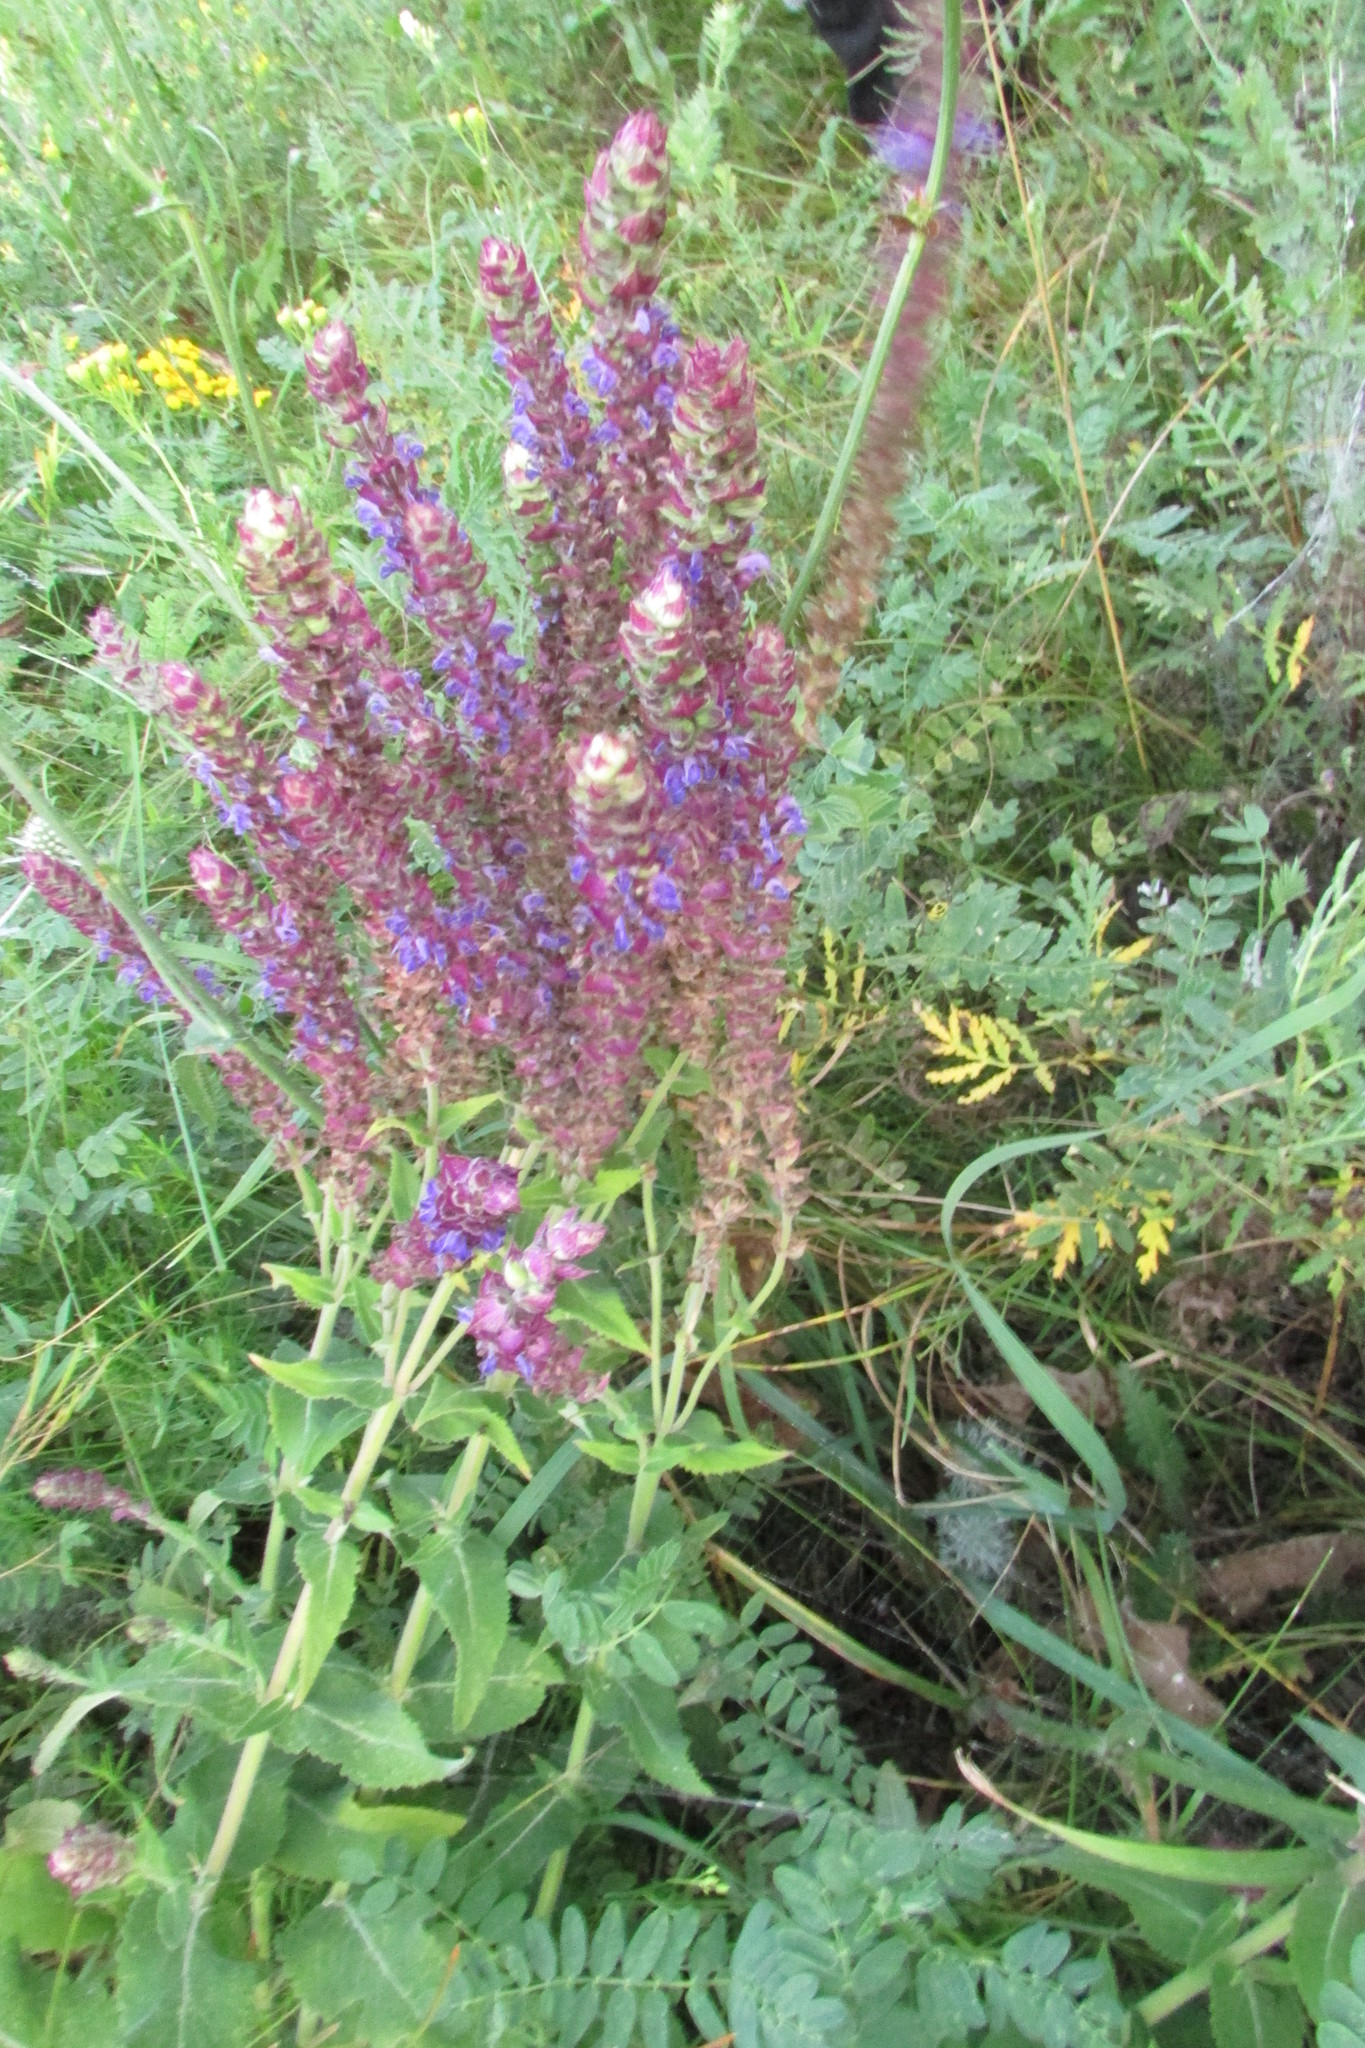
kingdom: Plantae
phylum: Tracheophyta
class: Magnoliopsida
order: Lamiales
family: Lamiaceae
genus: Salvia
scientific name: Salvia nemorosa
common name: Balkan clary
